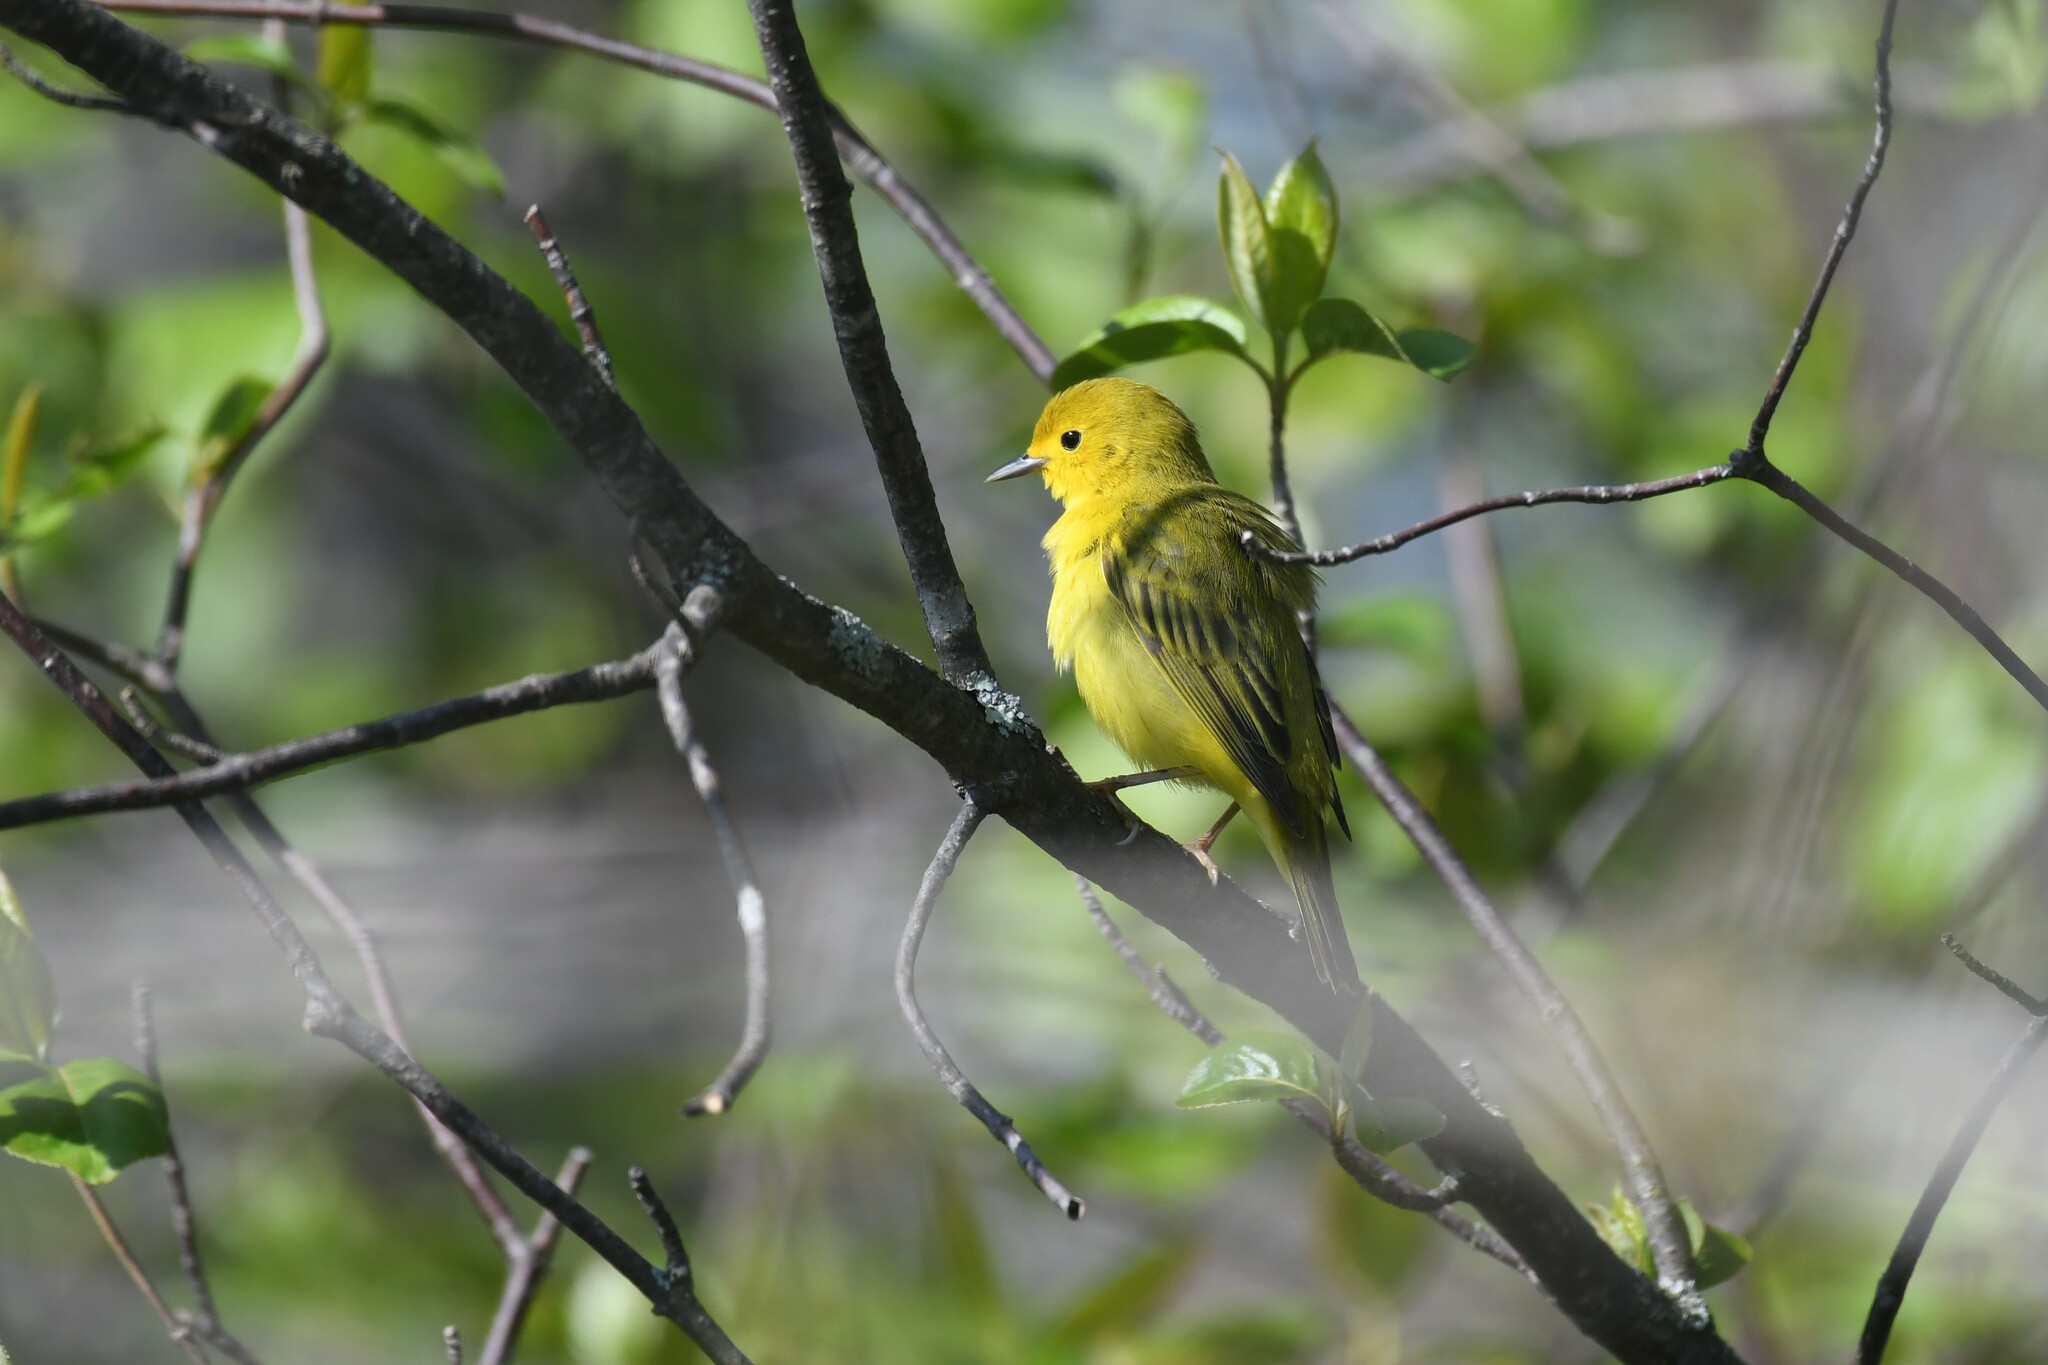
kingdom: Animalia
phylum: Chordata
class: Aves
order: Passeriformes
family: Parulidae
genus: Setophaga
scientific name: Setophaga petechia
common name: Yellow warbler
